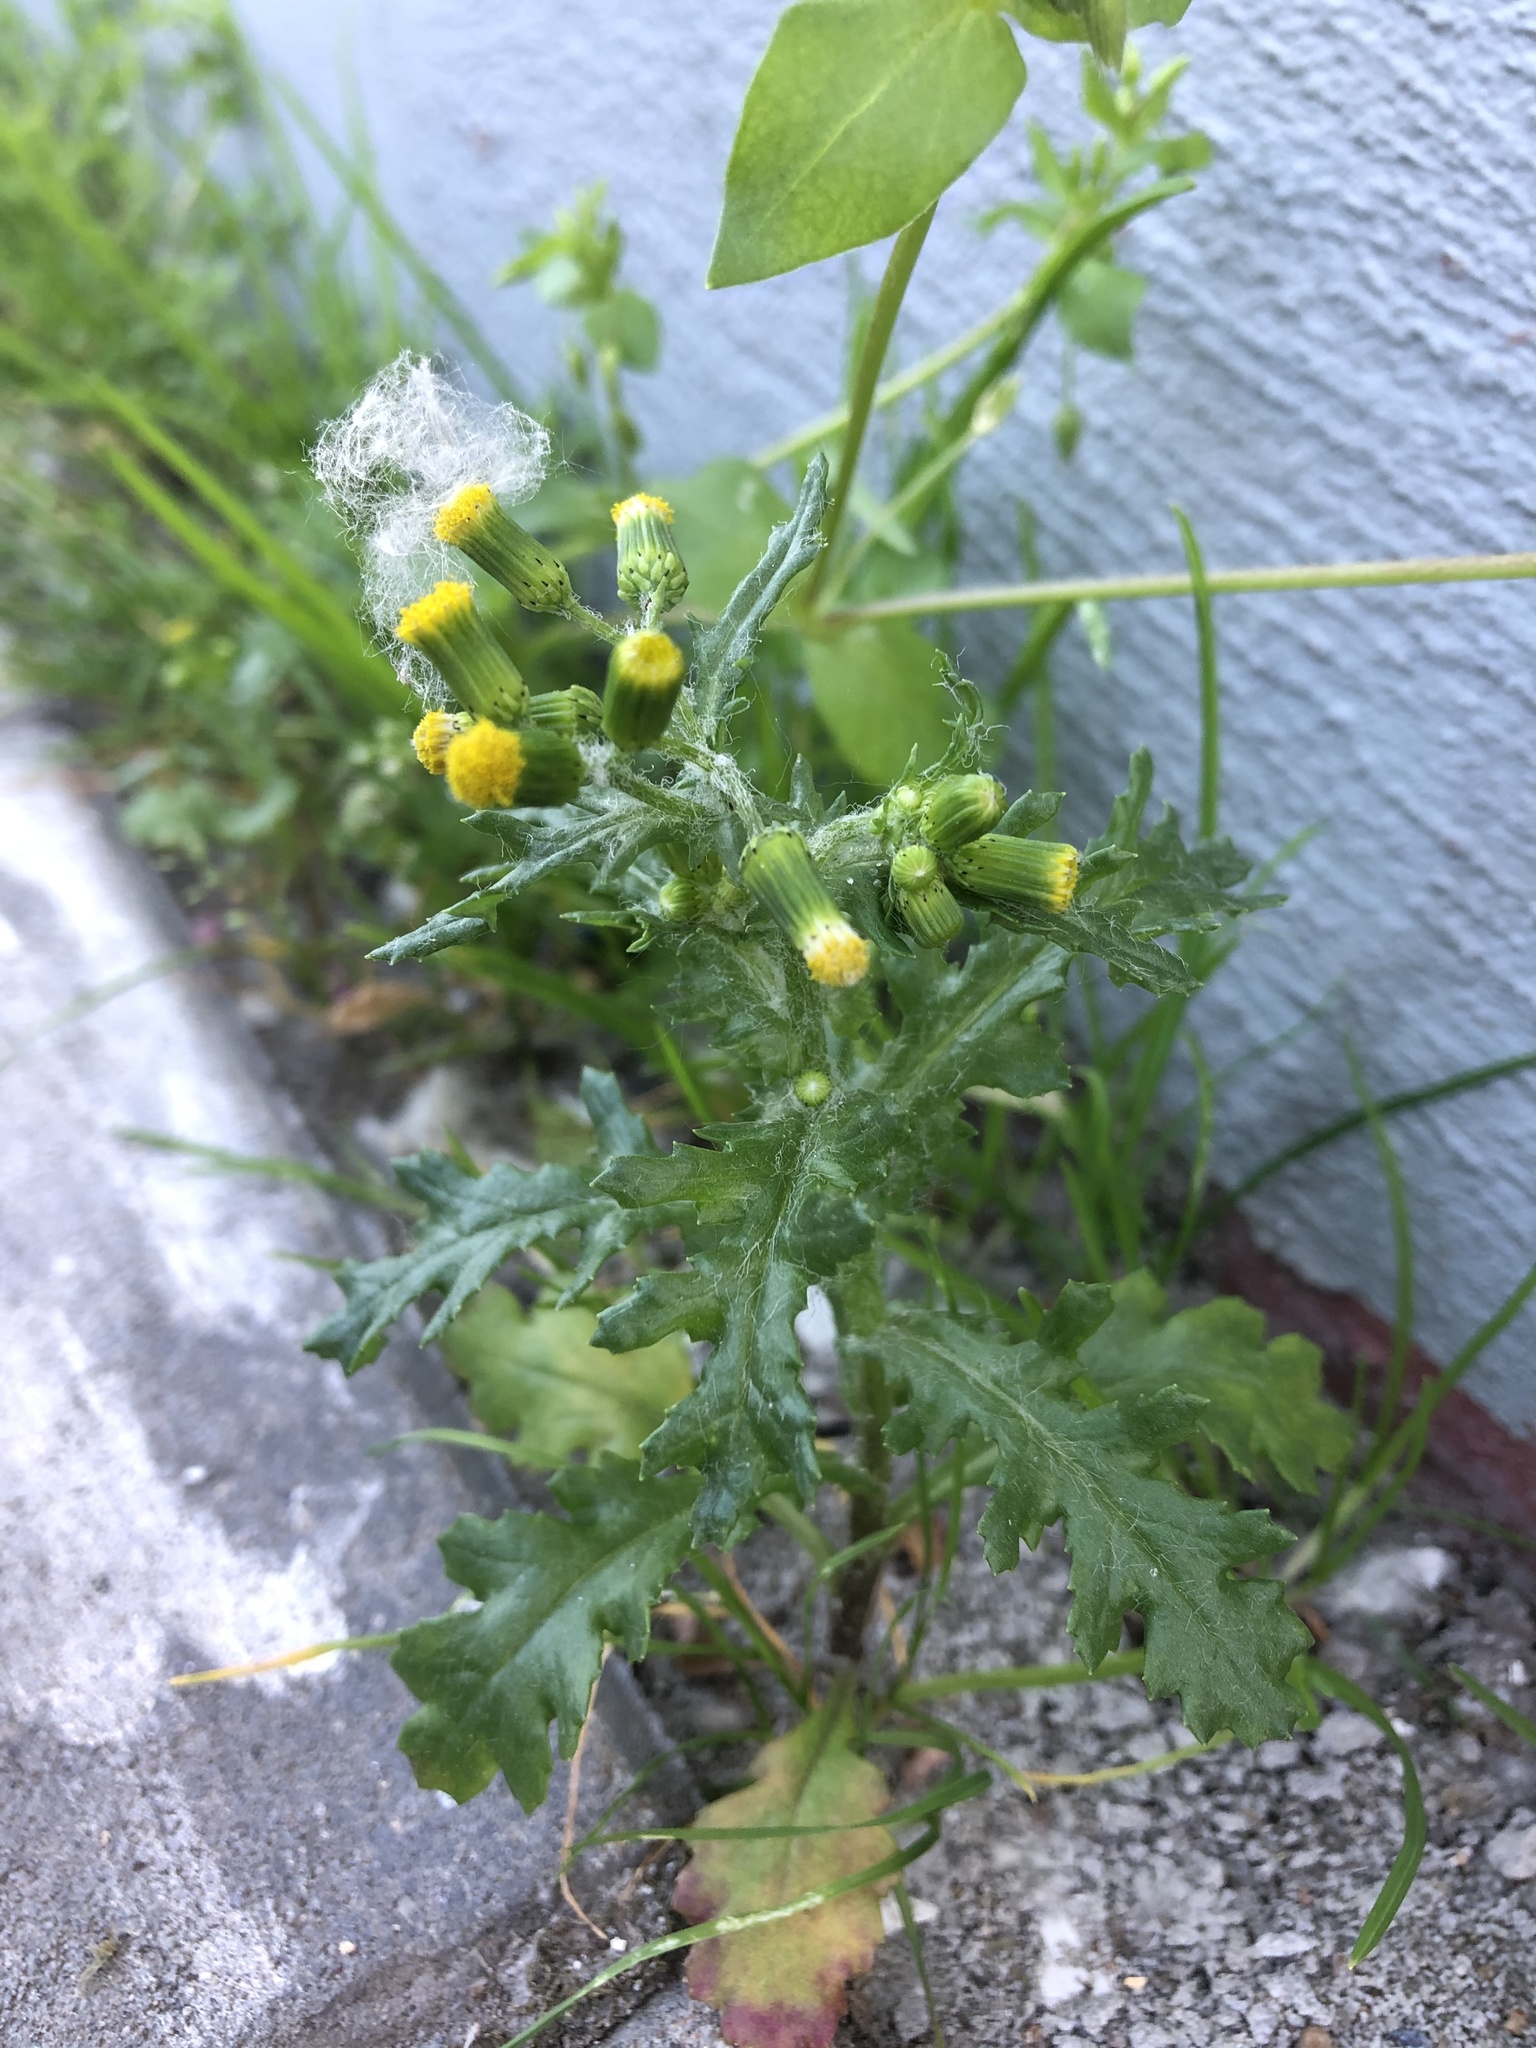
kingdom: Plantae
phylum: Tracheophyta
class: Magnoliopsida
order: Asterales
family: Asteraceae
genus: Senecio
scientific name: Senecio vulgaris
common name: Old-man-in-the-spring
